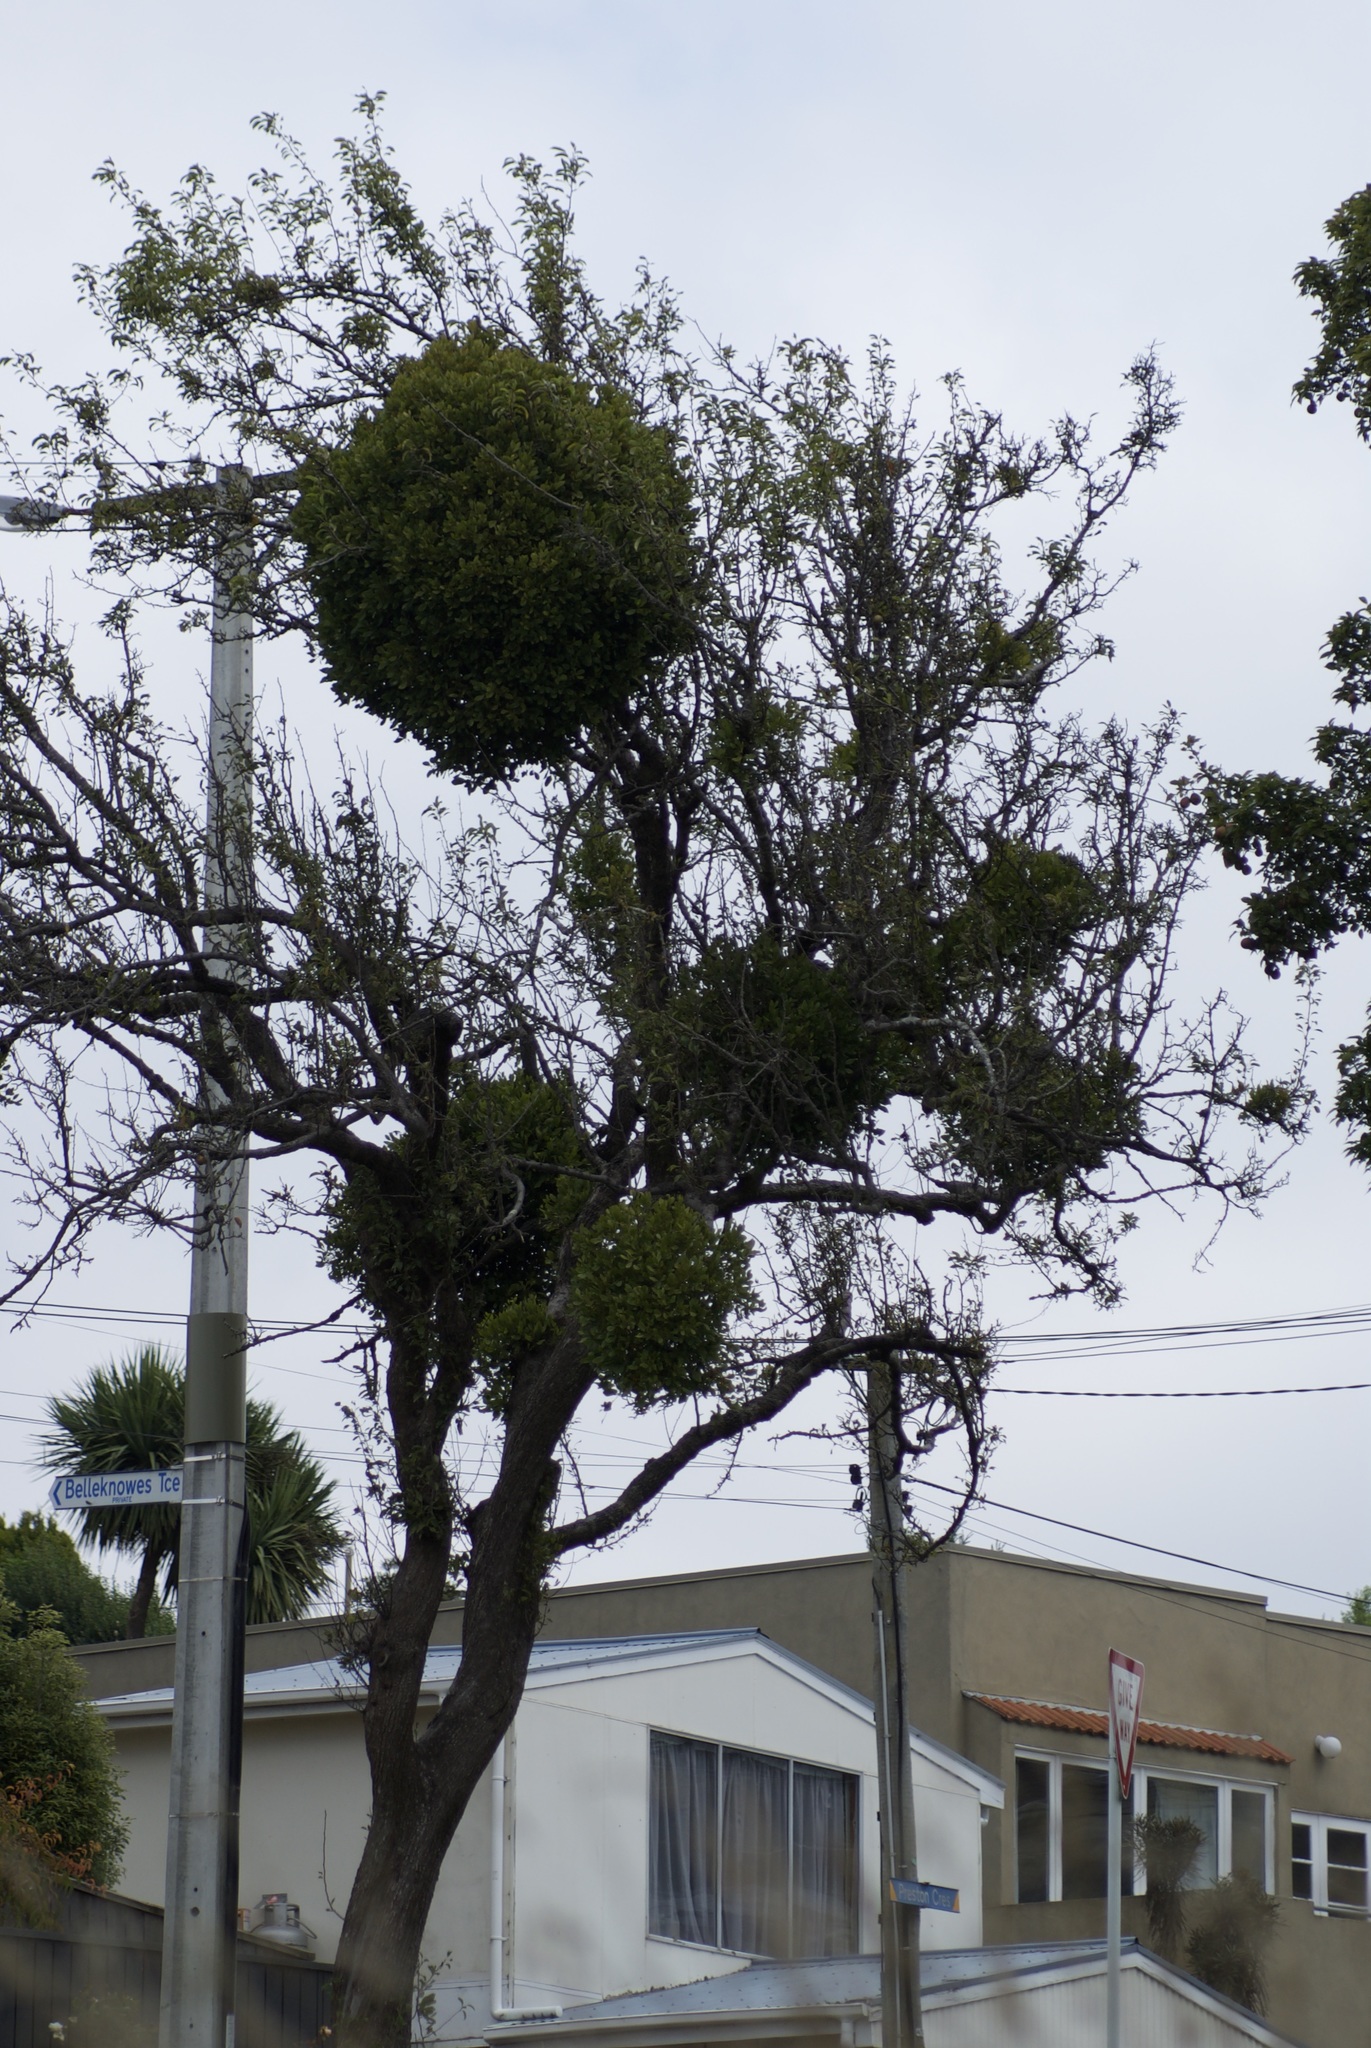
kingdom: Plantae
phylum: Tracheophyta
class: Magnoliopsida
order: Santalales
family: Loranthaceae
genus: Ileostylus
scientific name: Ileostylus micranthus
